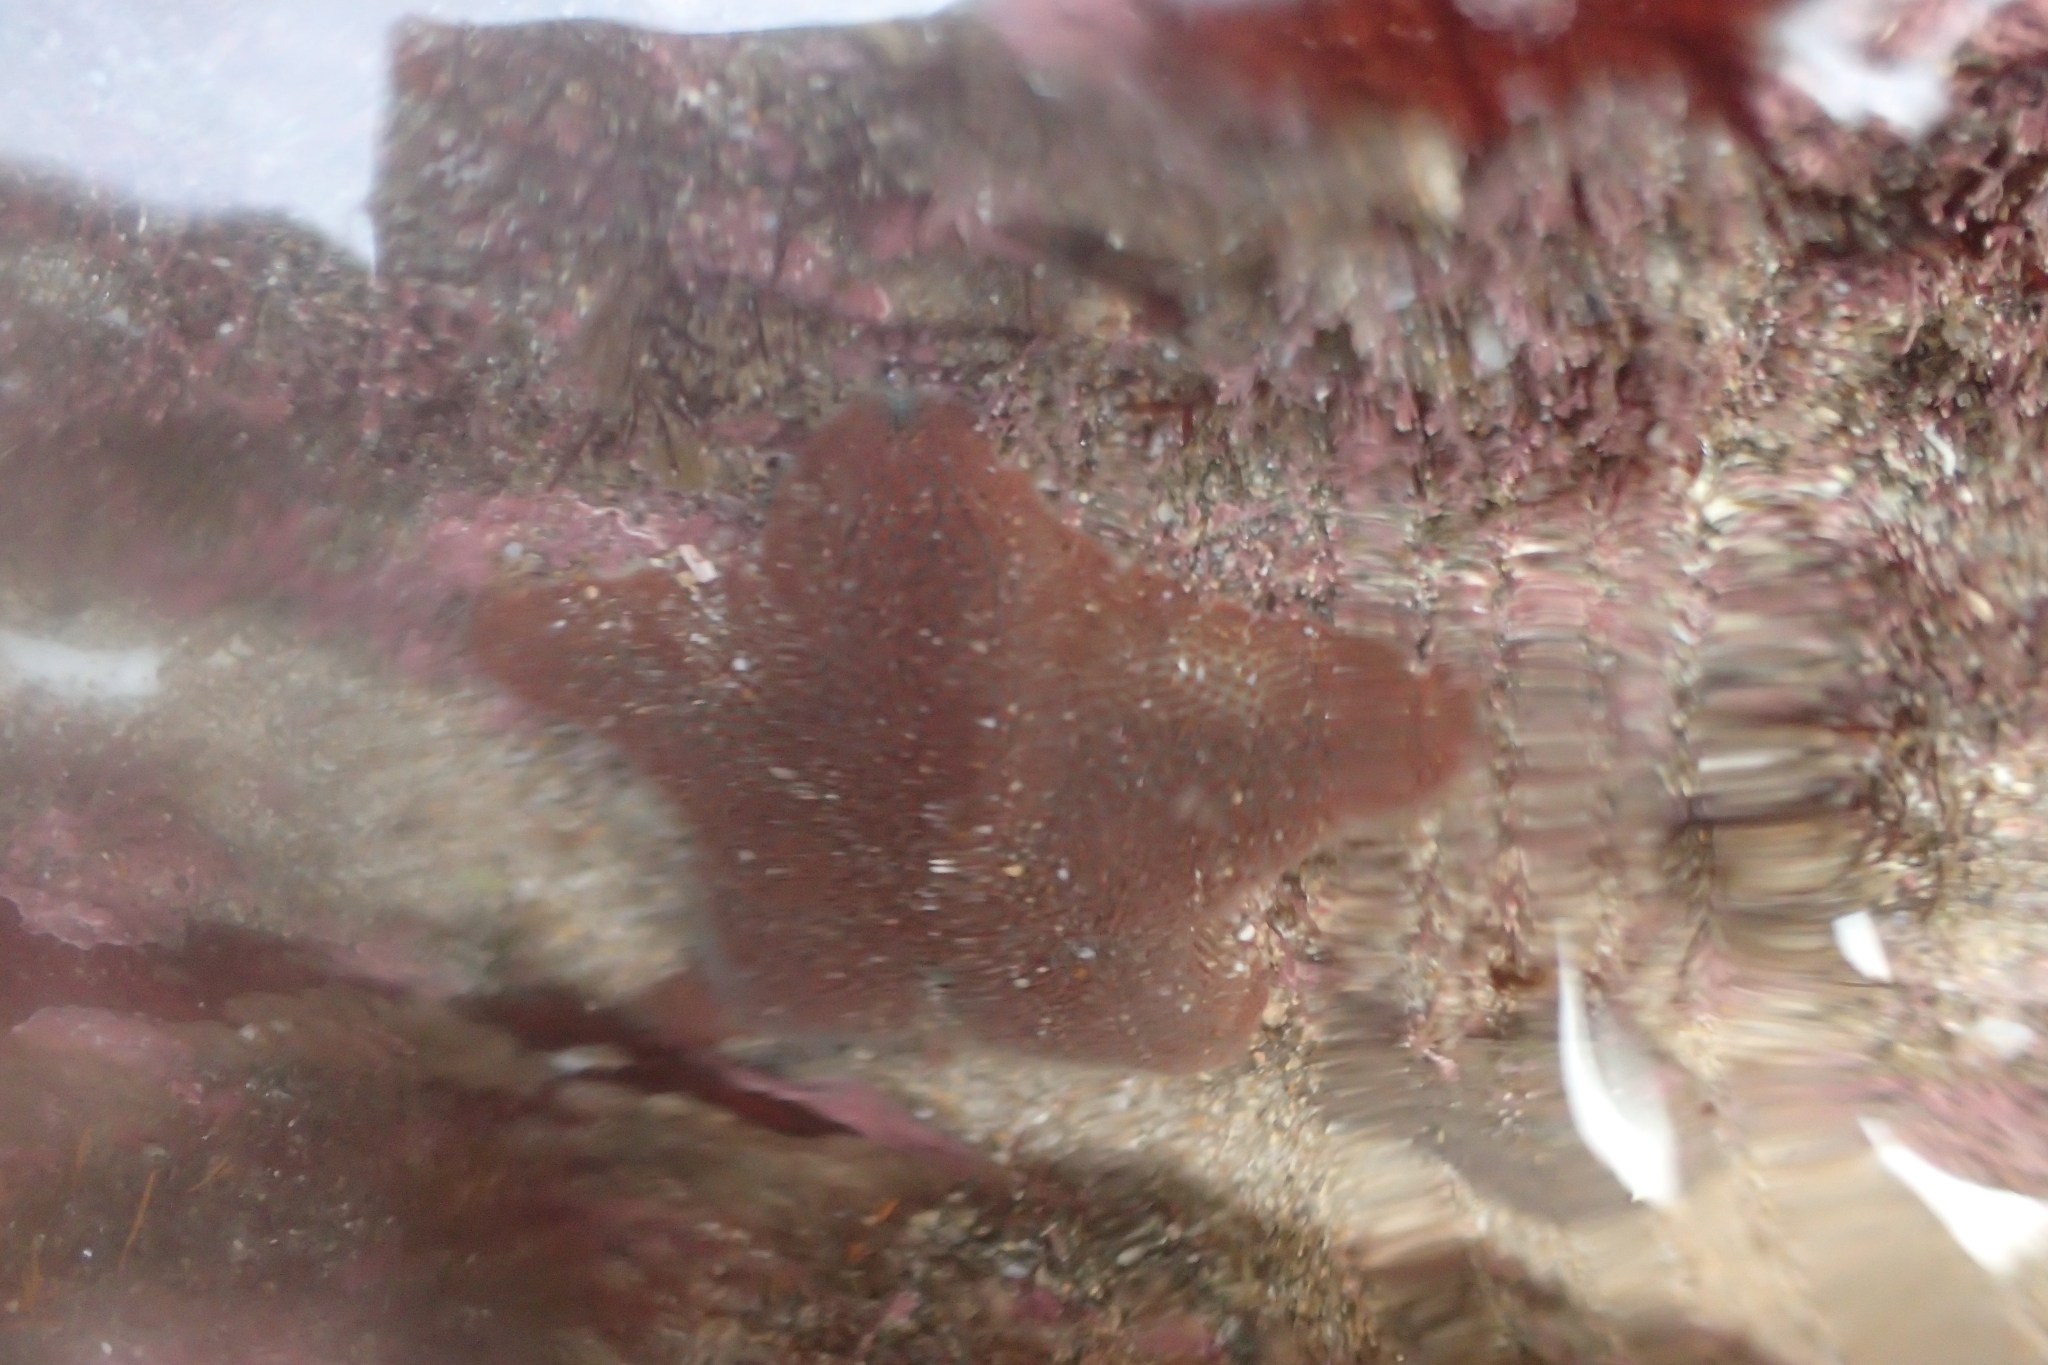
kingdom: Animalia
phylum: Echinodermata
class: Asteroidea
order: Valvatida
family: Asterinidae
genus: Patiriella
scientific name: Patiriella regularis
